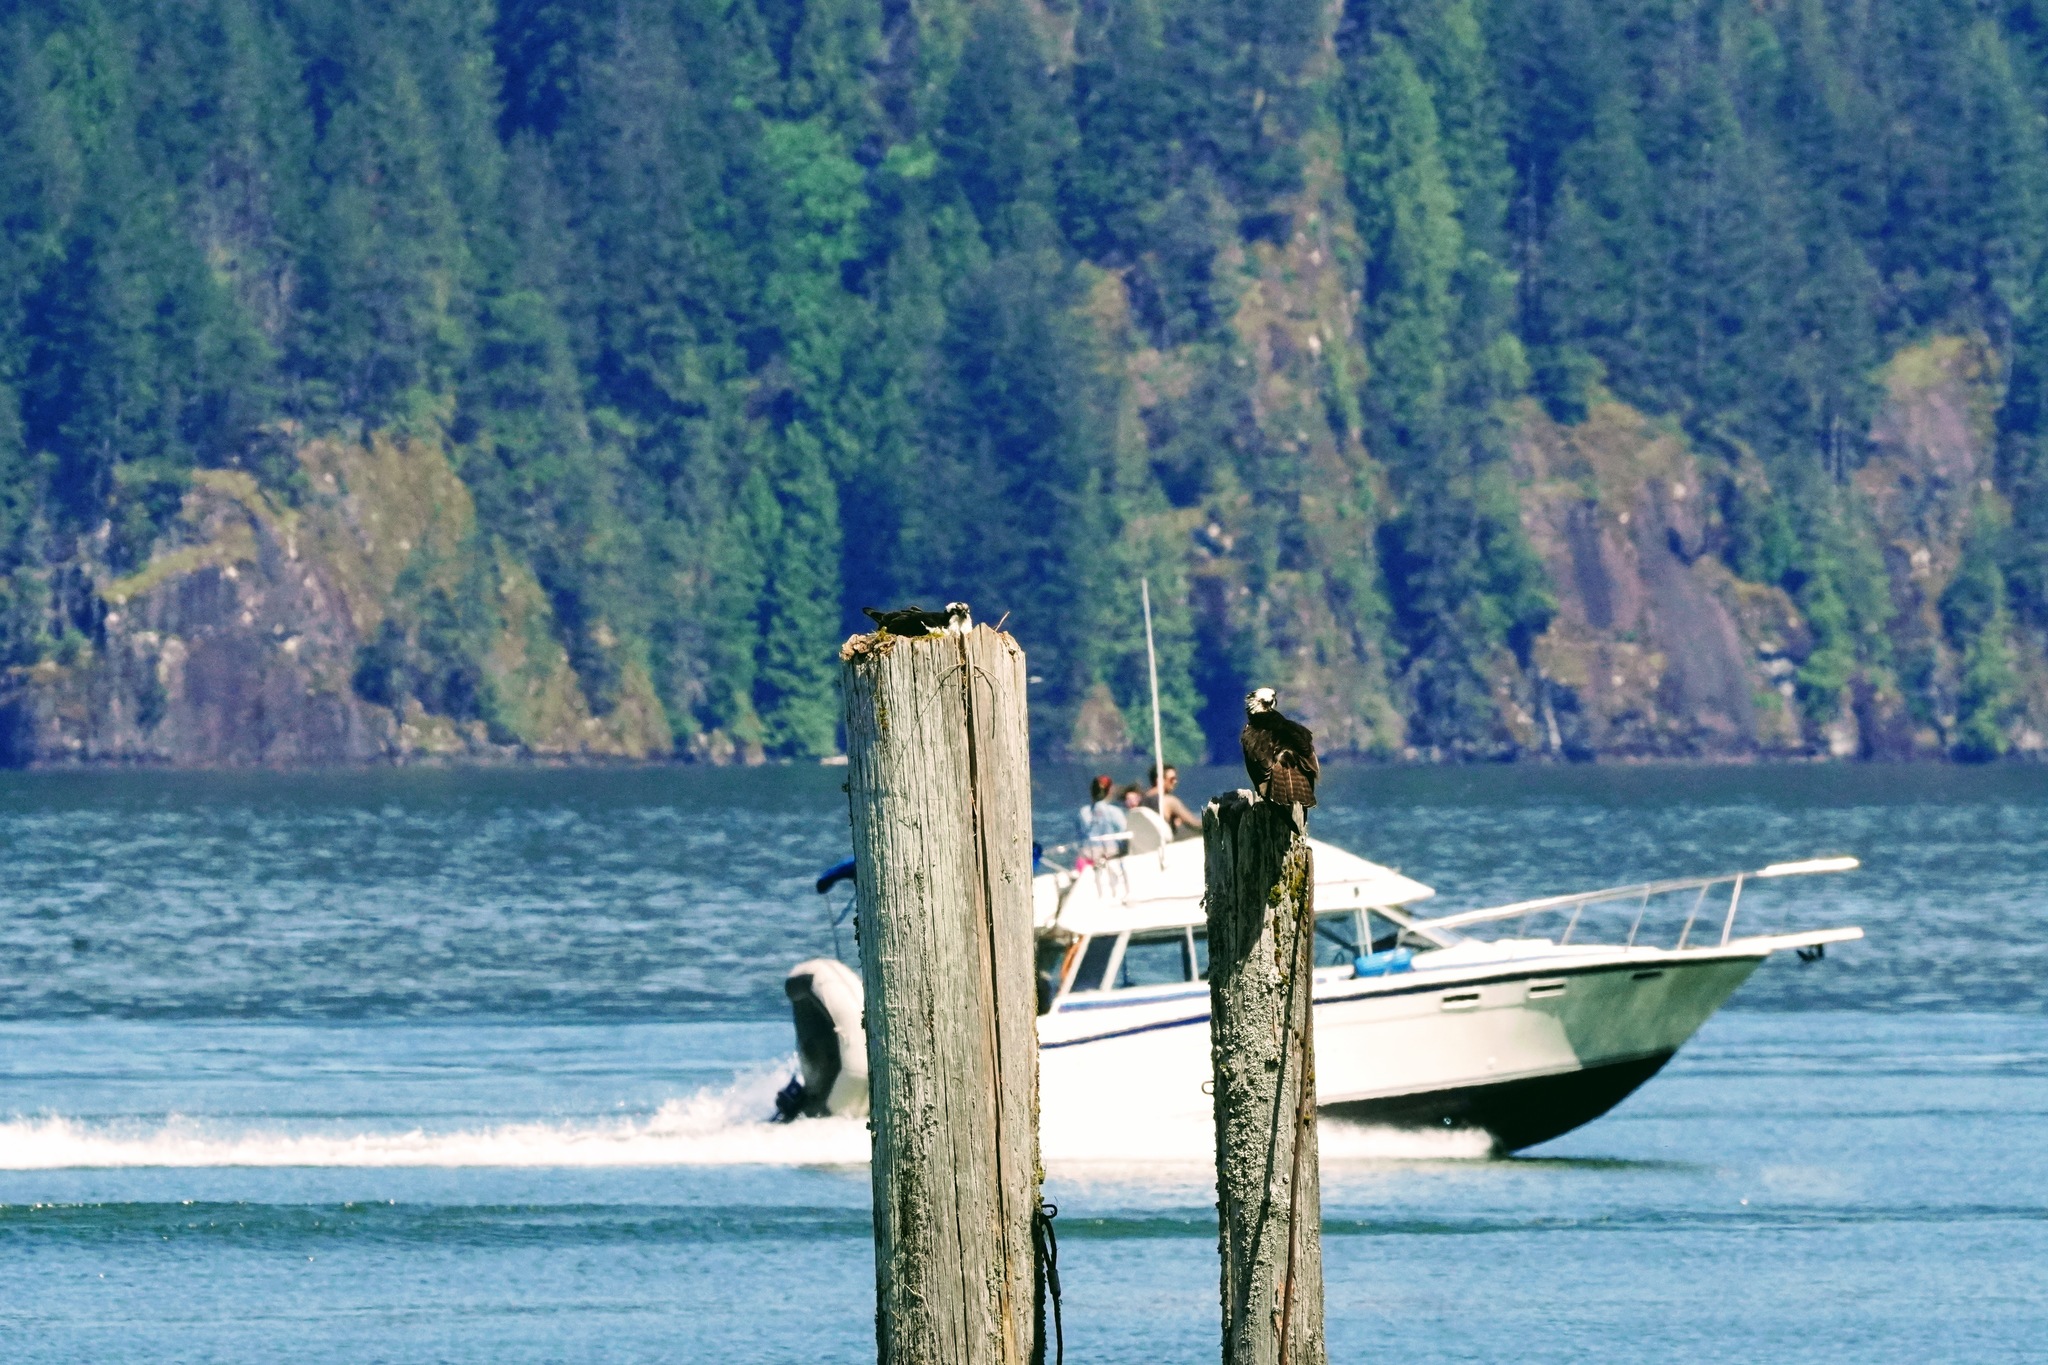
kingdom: Animalia
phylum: Chordata
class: Aves
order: Accipitriformes
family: Pandionidae
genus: Pandion
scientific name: Pandion haliaetus
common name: Osprey
